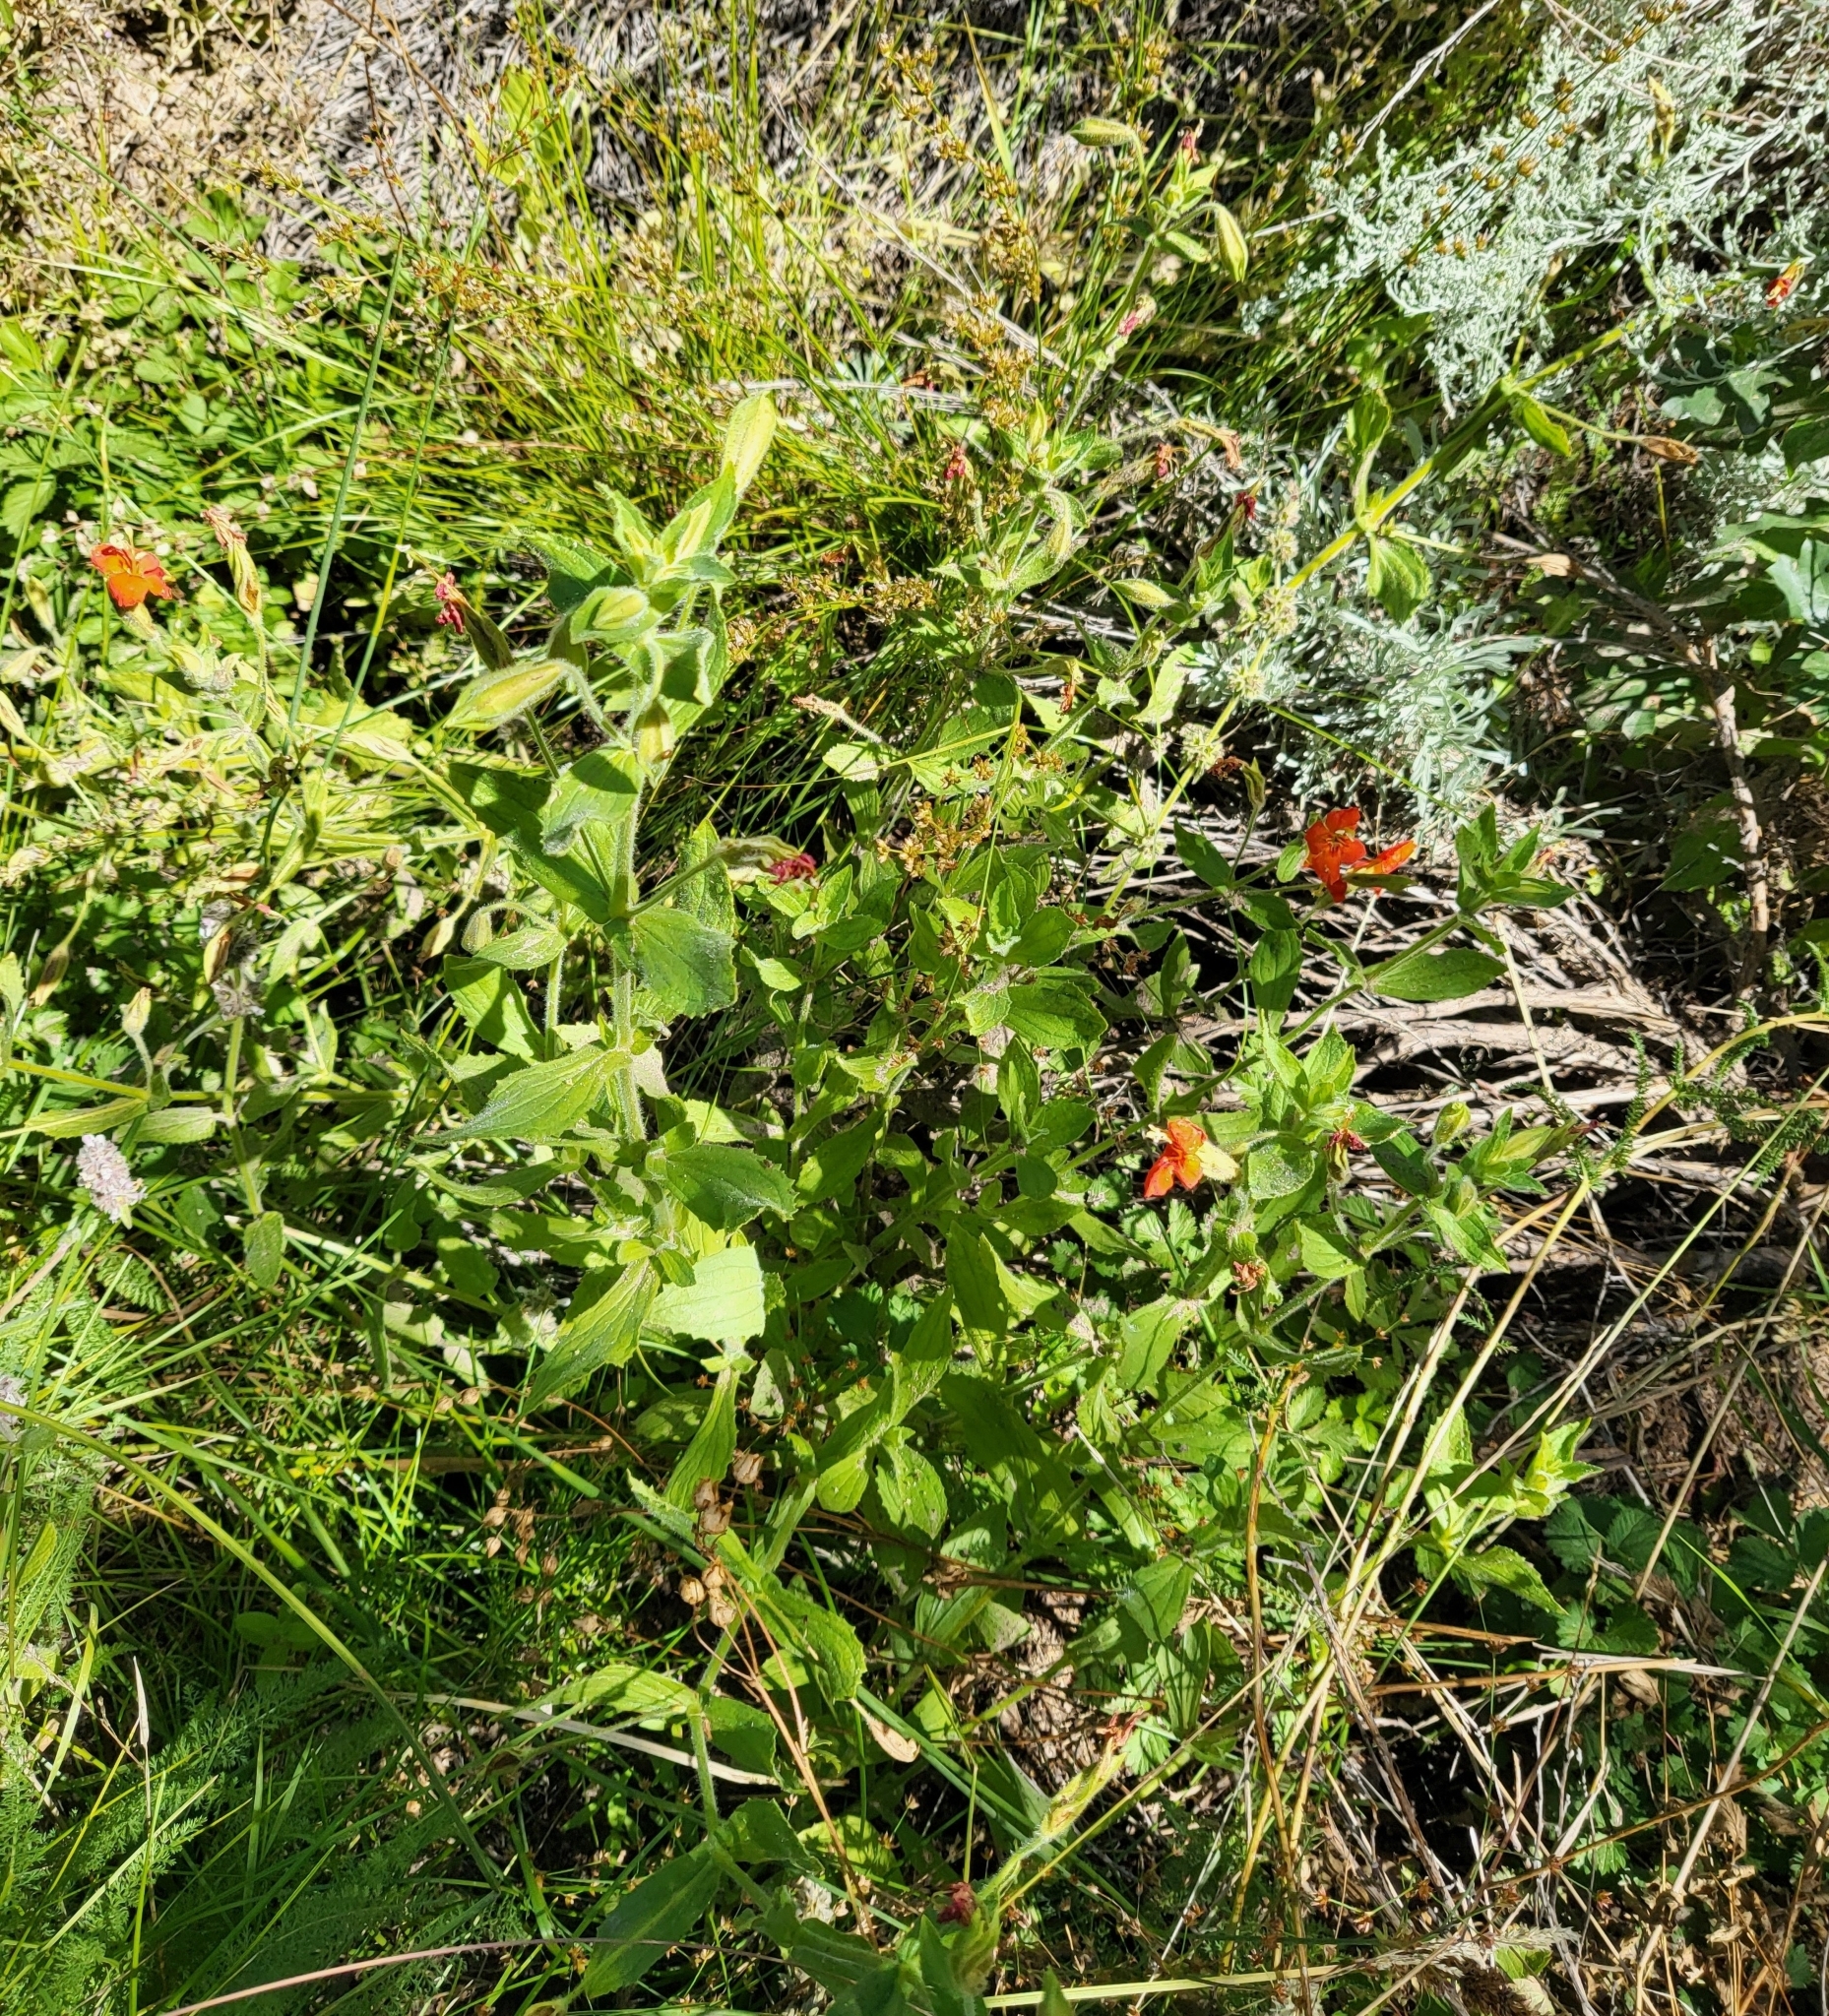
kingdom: Plantae
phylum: Tracheophyta
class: Magnoliopsida
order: Lamiales
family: Phrymaceae
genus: Erythranthe
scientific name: Erythranthe cardinalis
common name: Scarlet monkey-flower
